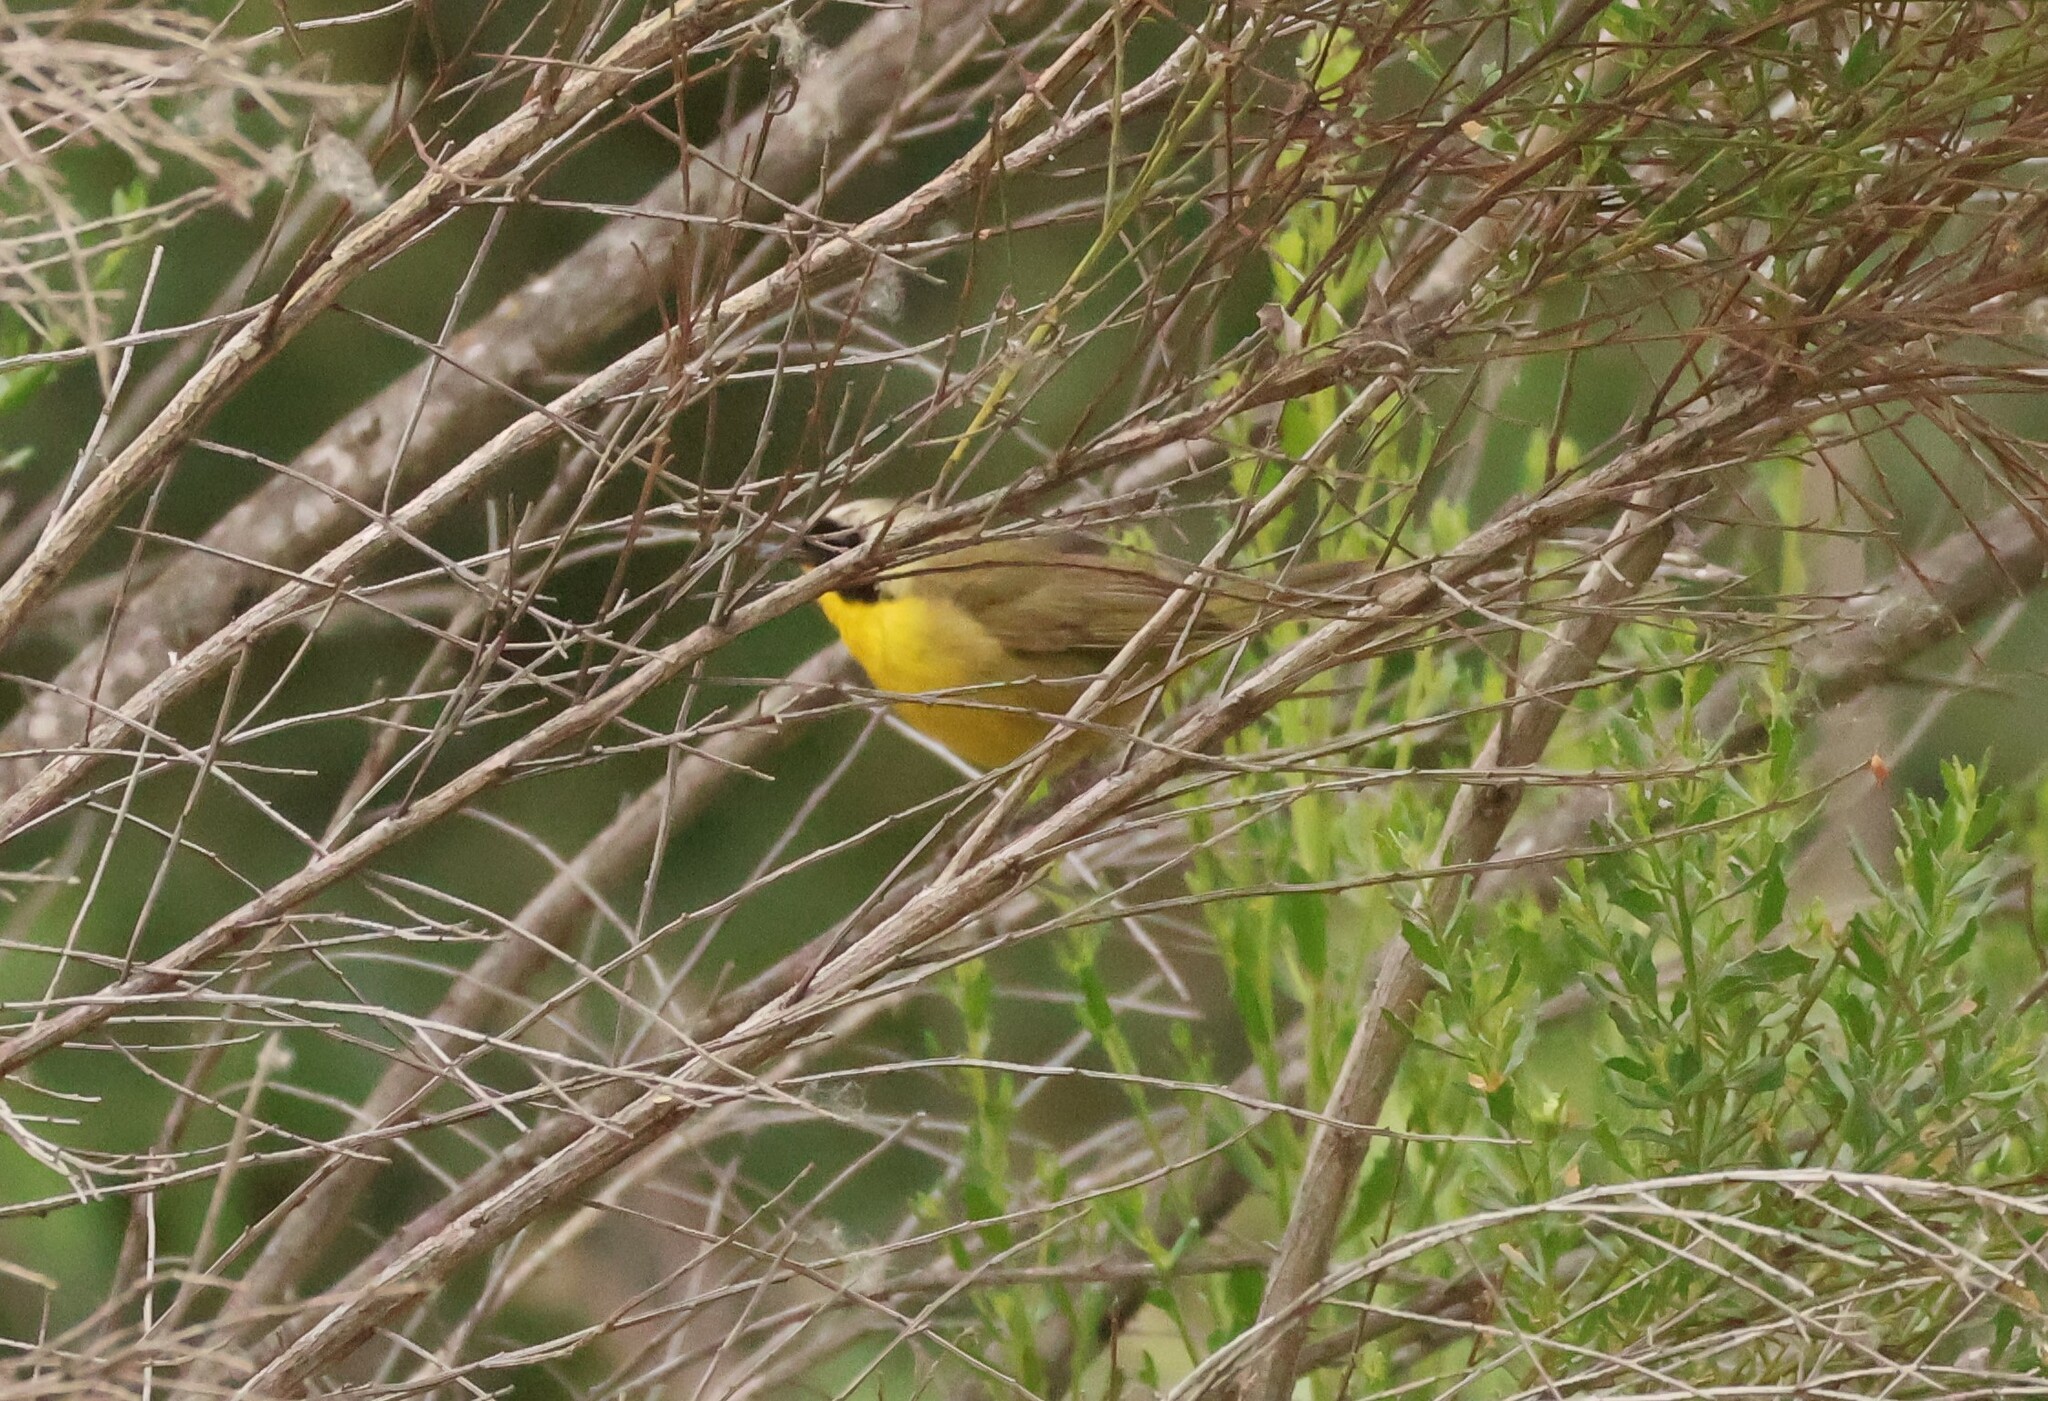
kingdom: Animalia
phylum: Chordata
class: Aves
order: Passeriformes
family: Parulidae
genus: Geothlypis
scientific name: Geothlypis trichas
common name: Common yellowthroat
